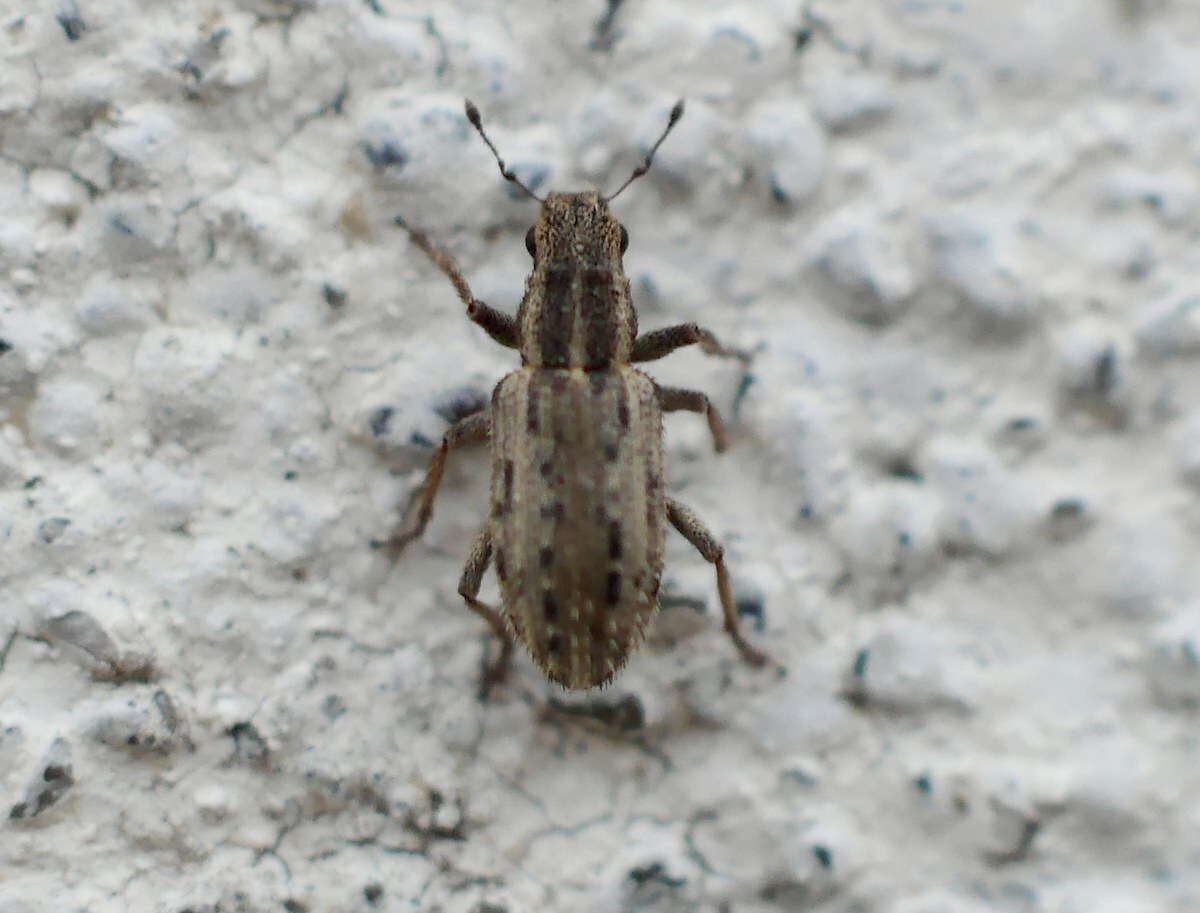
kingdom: Animalia
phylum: Arthropoda
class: Insecta
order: Coleoptera
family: Curculionidae
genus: Sitona
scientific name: Sitona macularius
